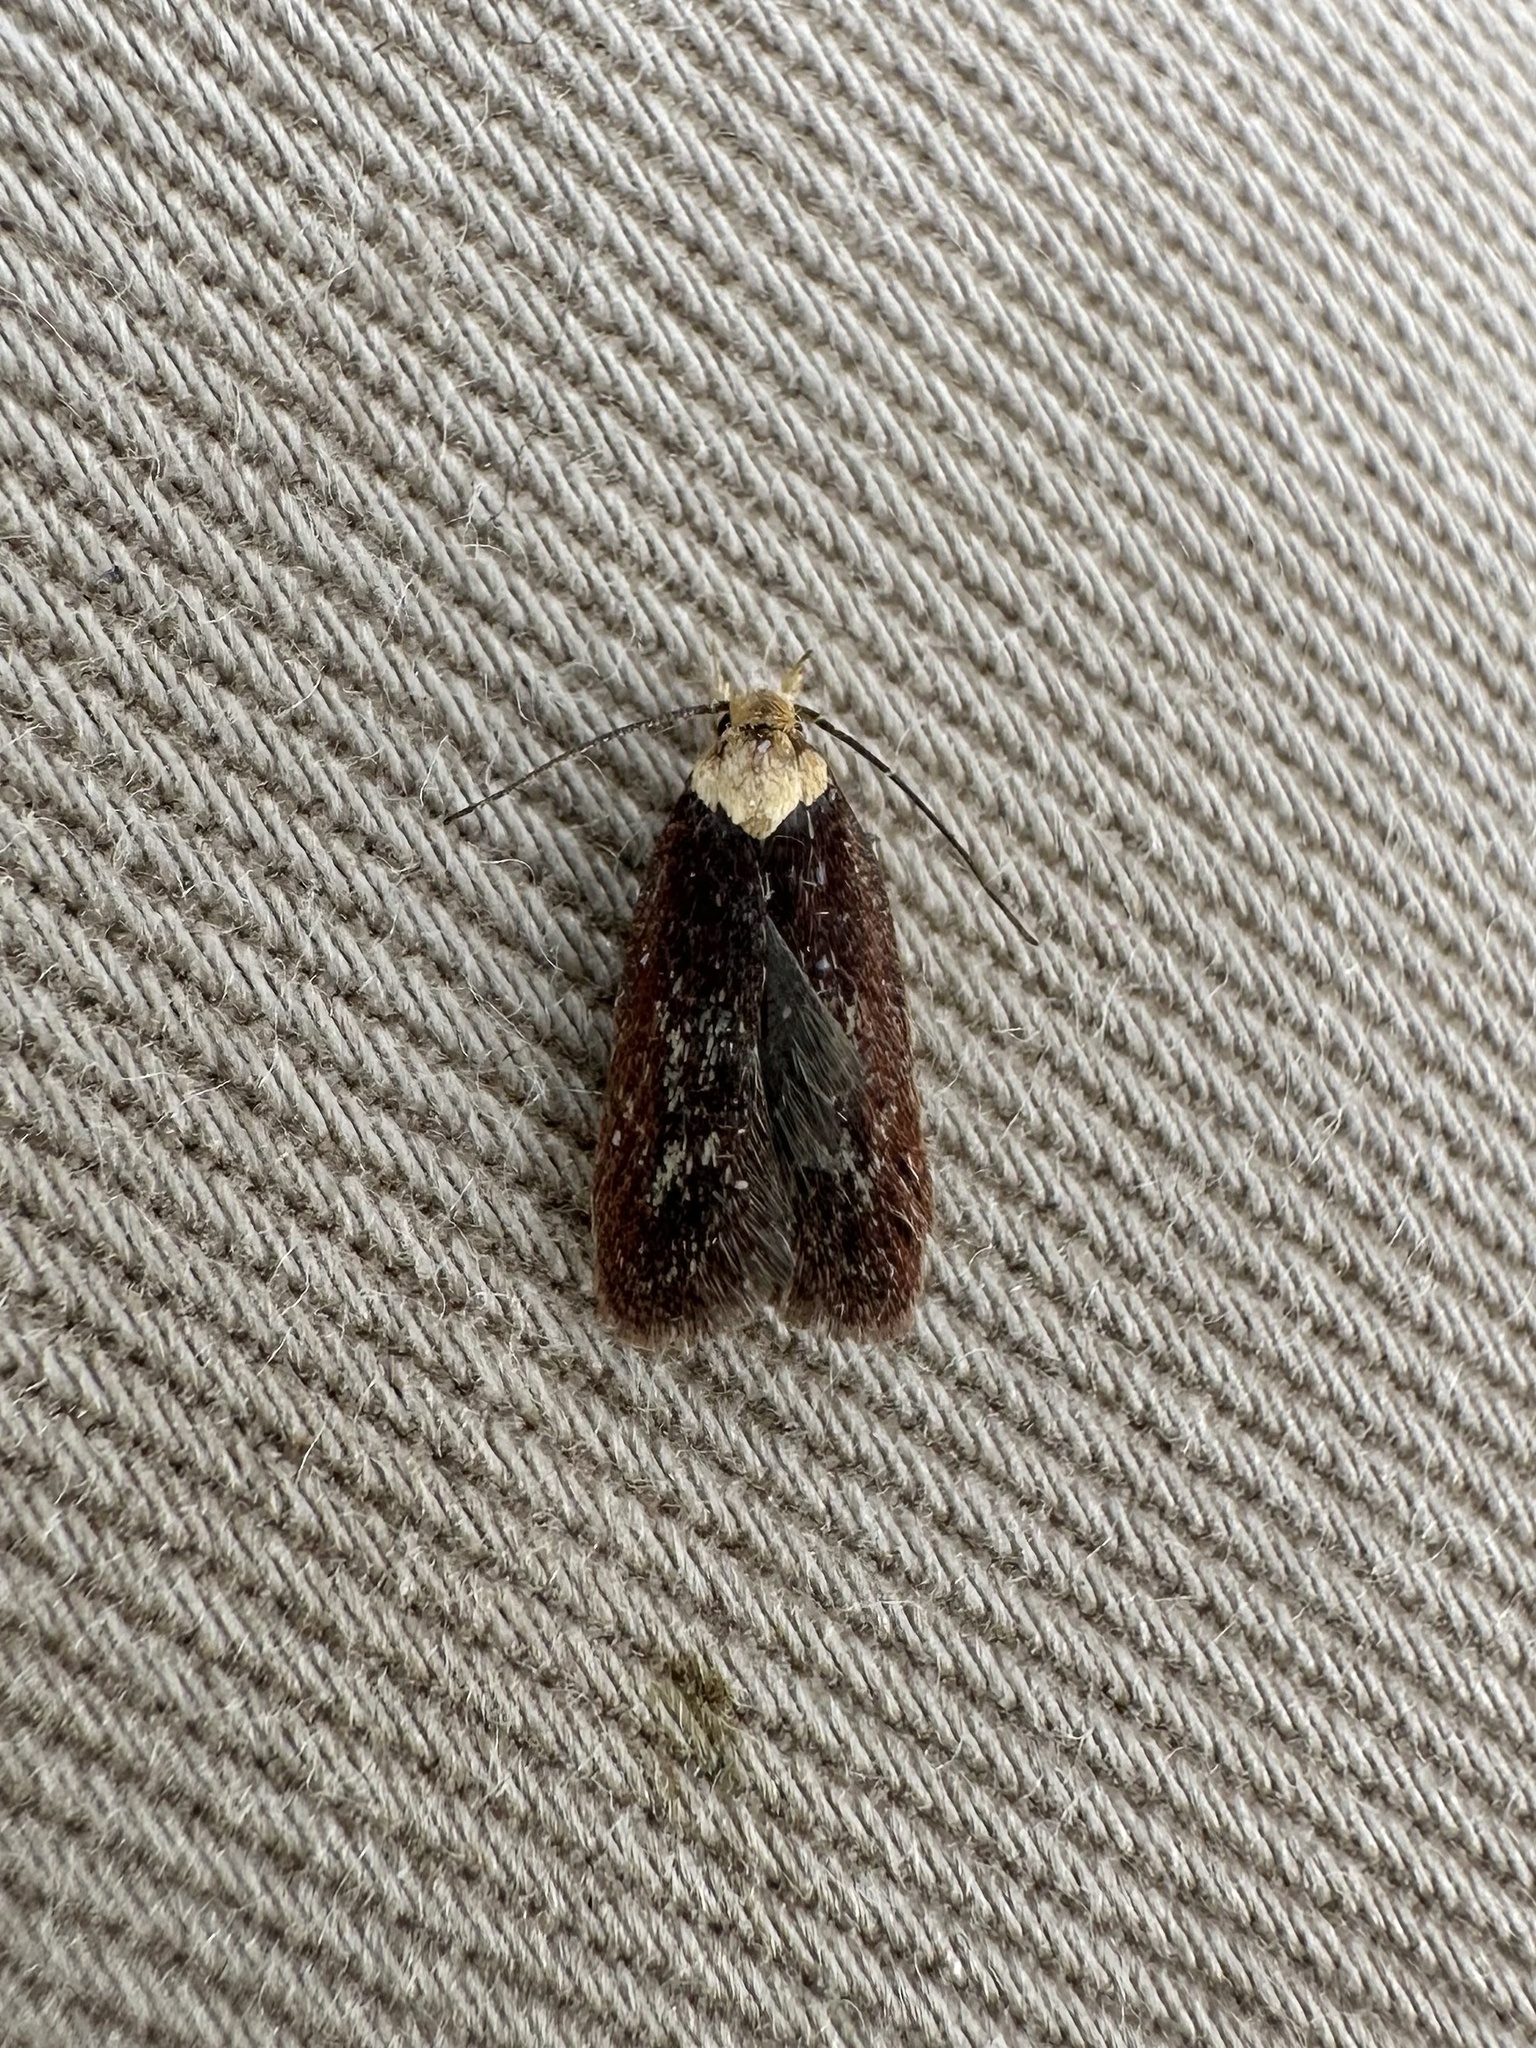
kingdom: Animalia
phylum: Arthropoda
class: Insecta
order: Lepidoptera
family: Depressariidae
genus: Depressaria
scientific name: Depressaria depressana
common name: Lost flat-body
